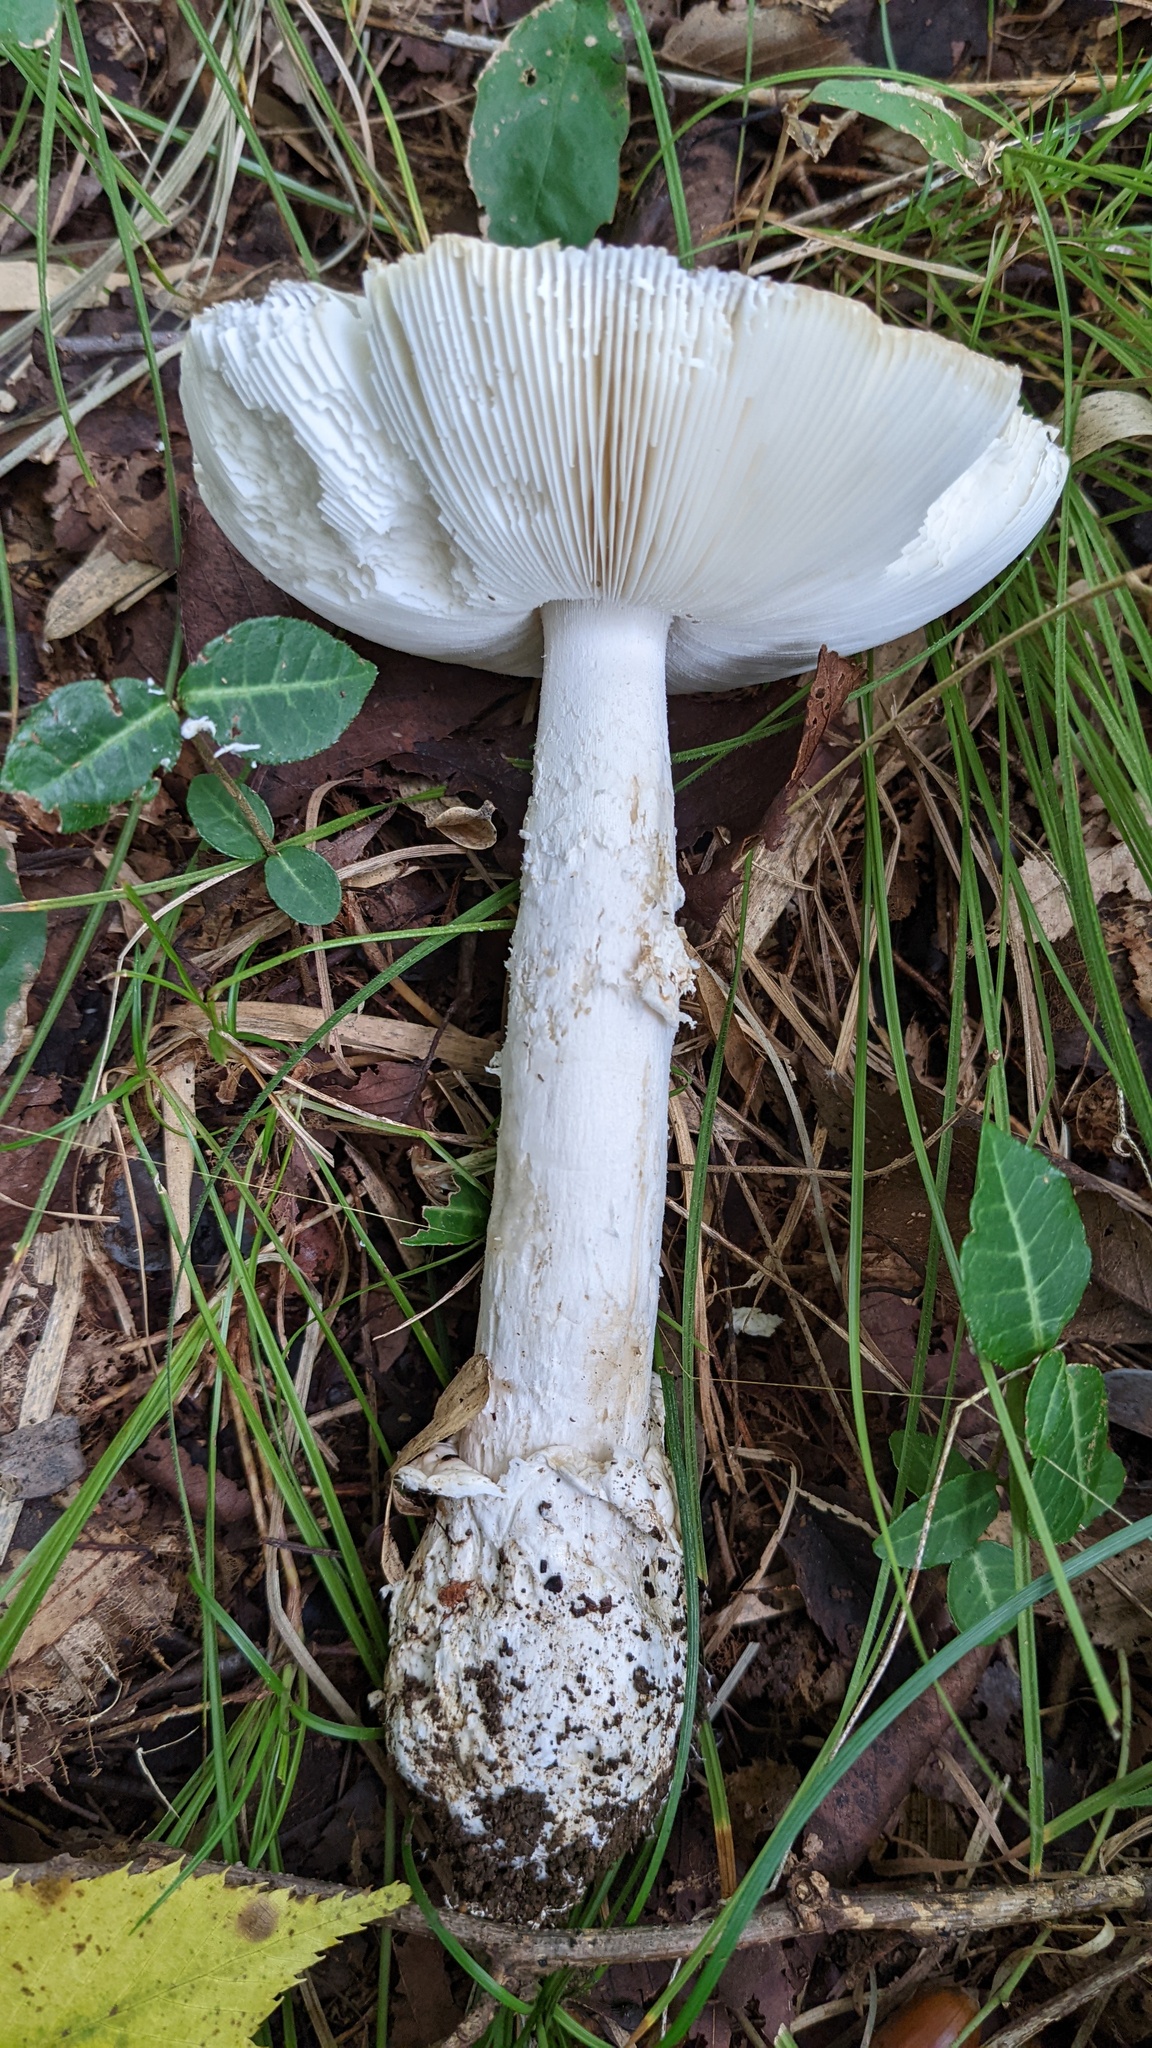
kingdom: Fungi
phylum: Basidiomycota
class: Agaricomycetes
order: Agaricales
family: Amanitaceae
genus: Amanita
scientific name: Amanita imazekii
